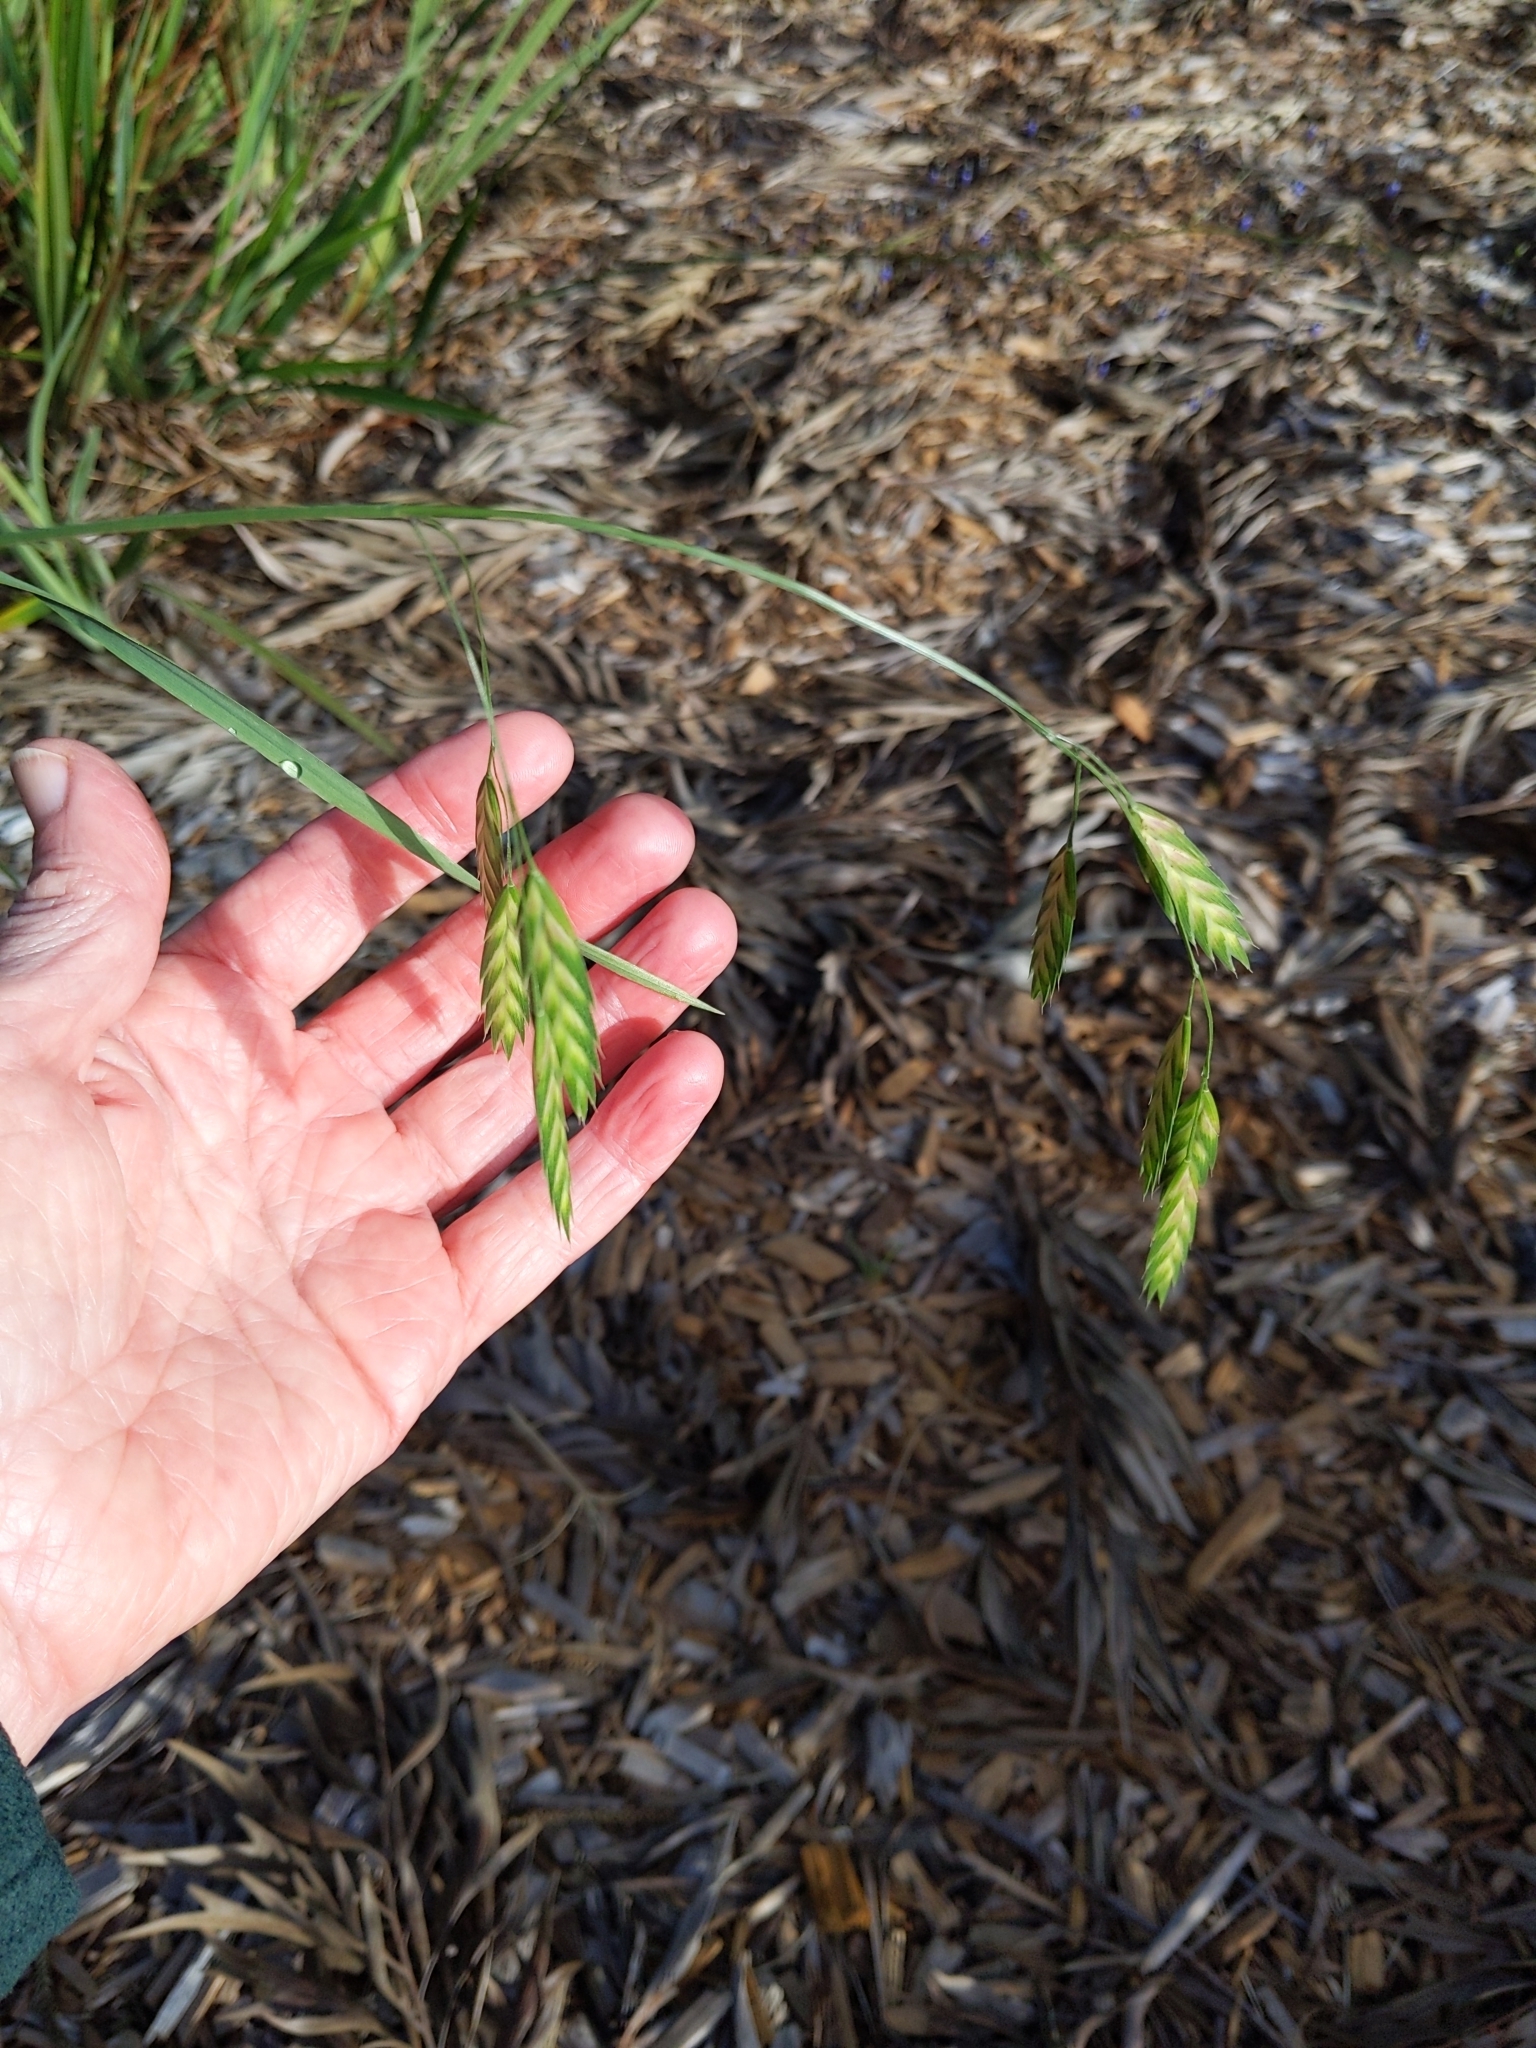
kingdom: Plantae
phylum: Tracheophyta
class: Liliopsida
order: Poales
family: Poaceae
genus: Bromus
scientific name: Bromus catharticus
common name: Rescuegrass
